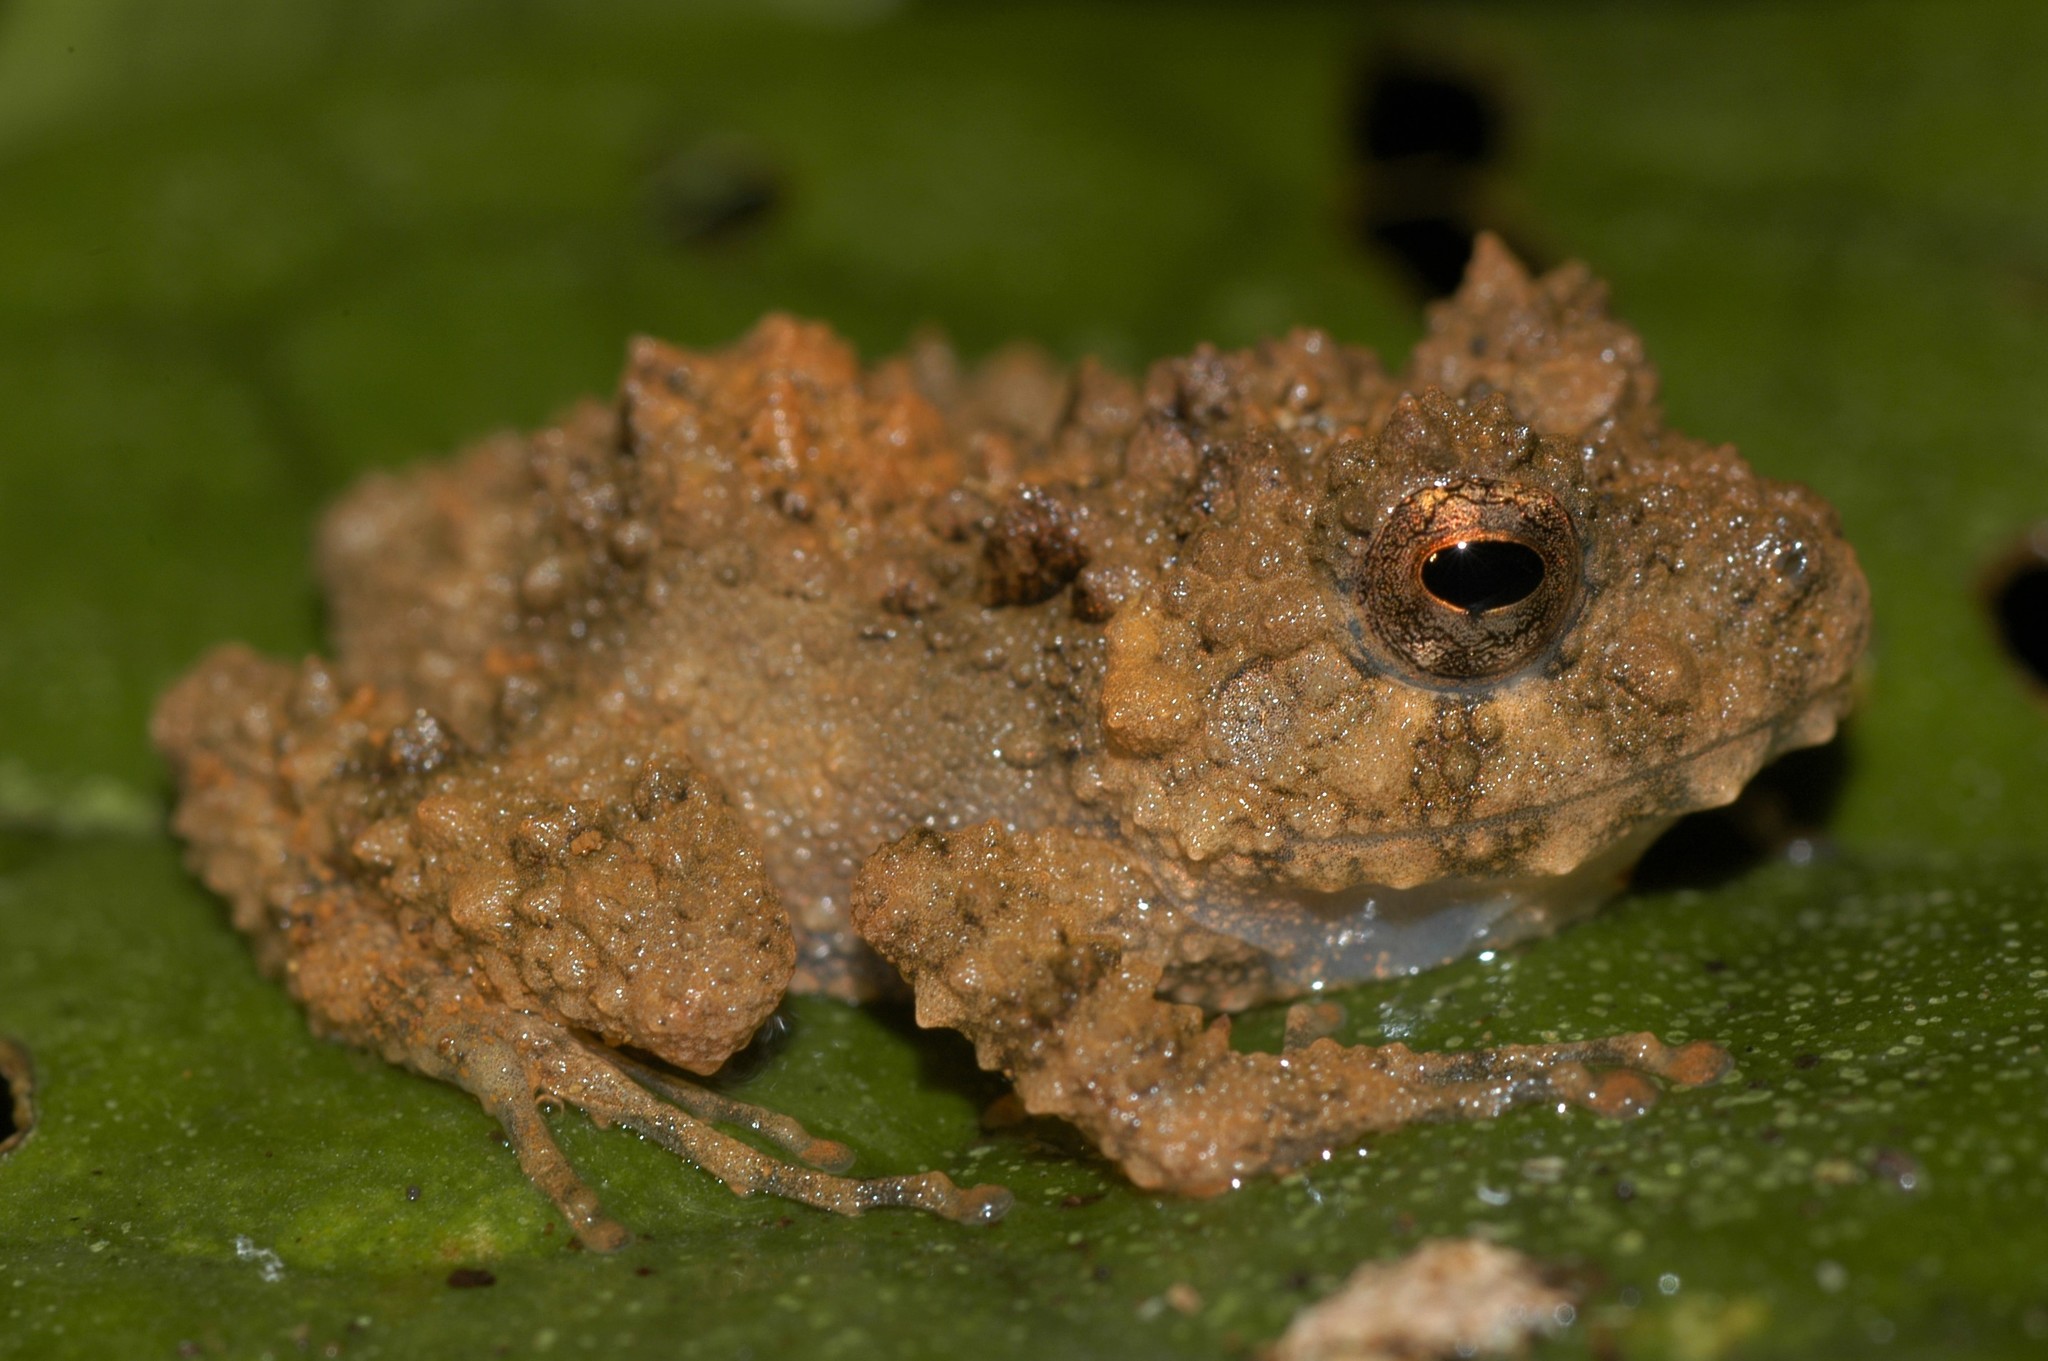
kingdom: Animalia
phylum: Chordata
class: Amphibia
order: Anura
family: Mantellidae
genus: Gephyromantis
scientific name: Gephyromantis oelkrugi
